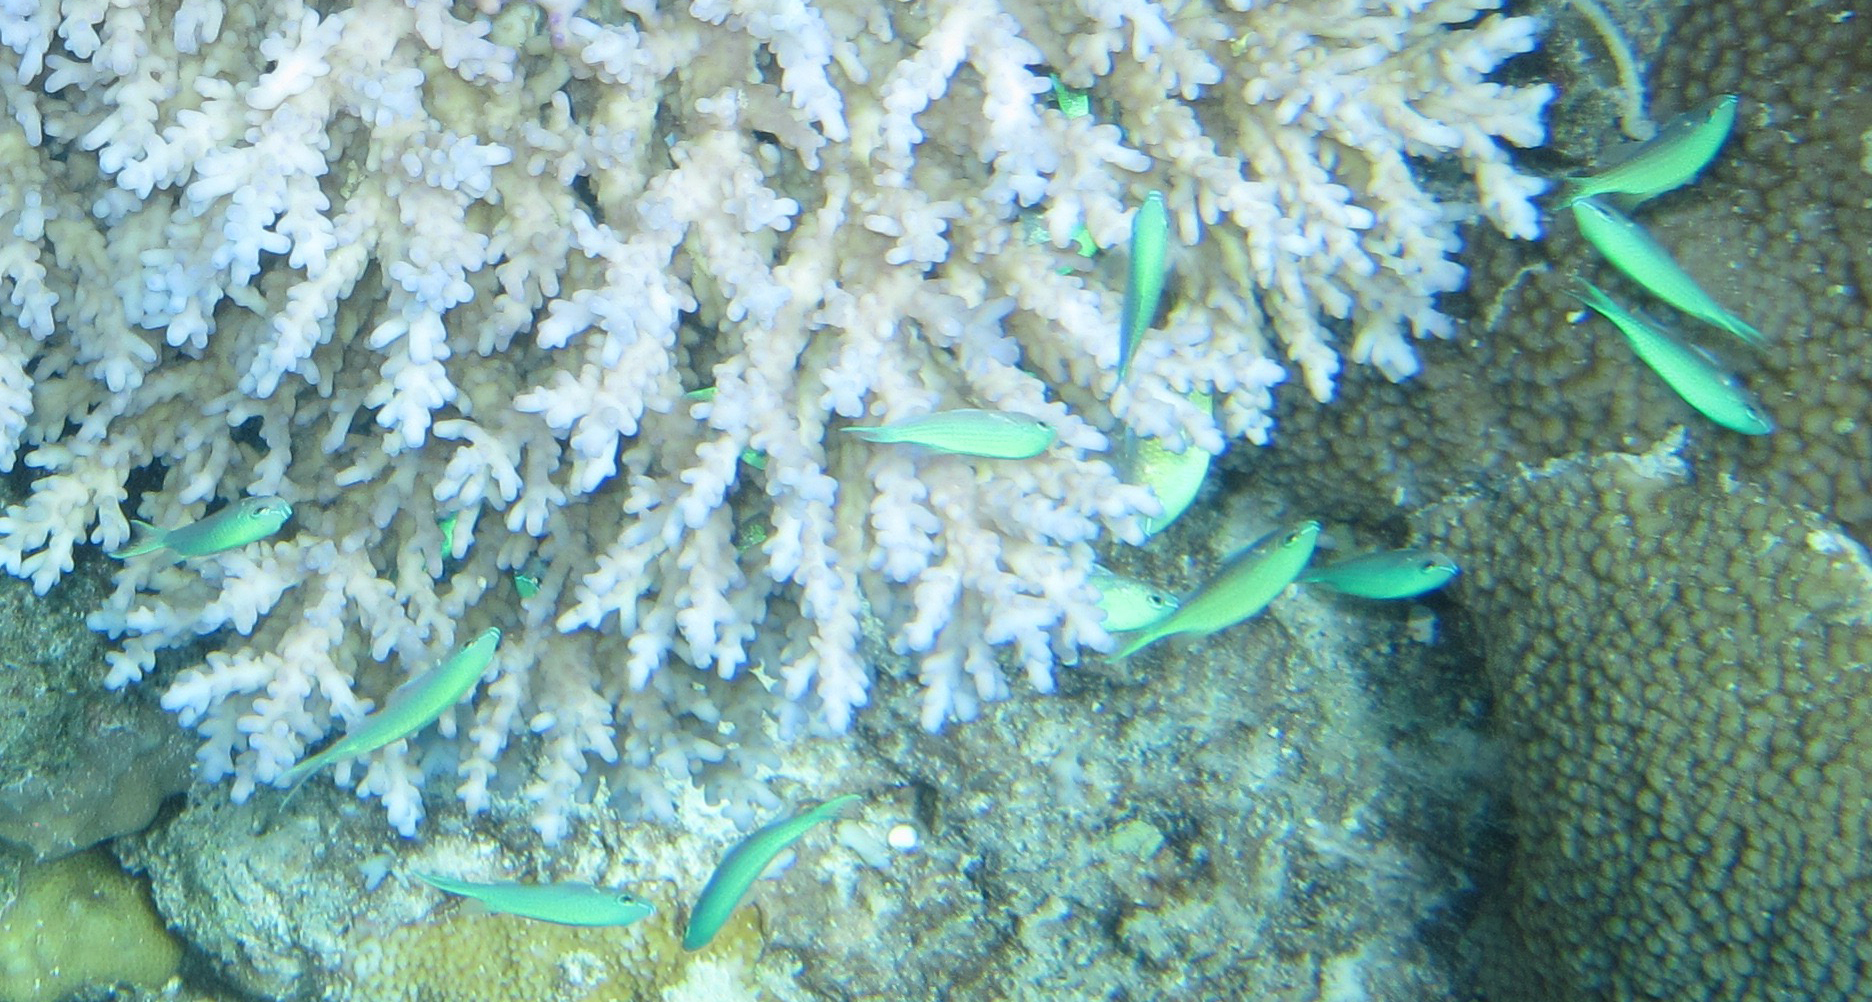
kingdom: Animalia
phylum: Chordata
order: Perciformes
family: Pomacentridae
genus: Chromis
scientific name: Chromis viridis
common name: Blue-green chromis
